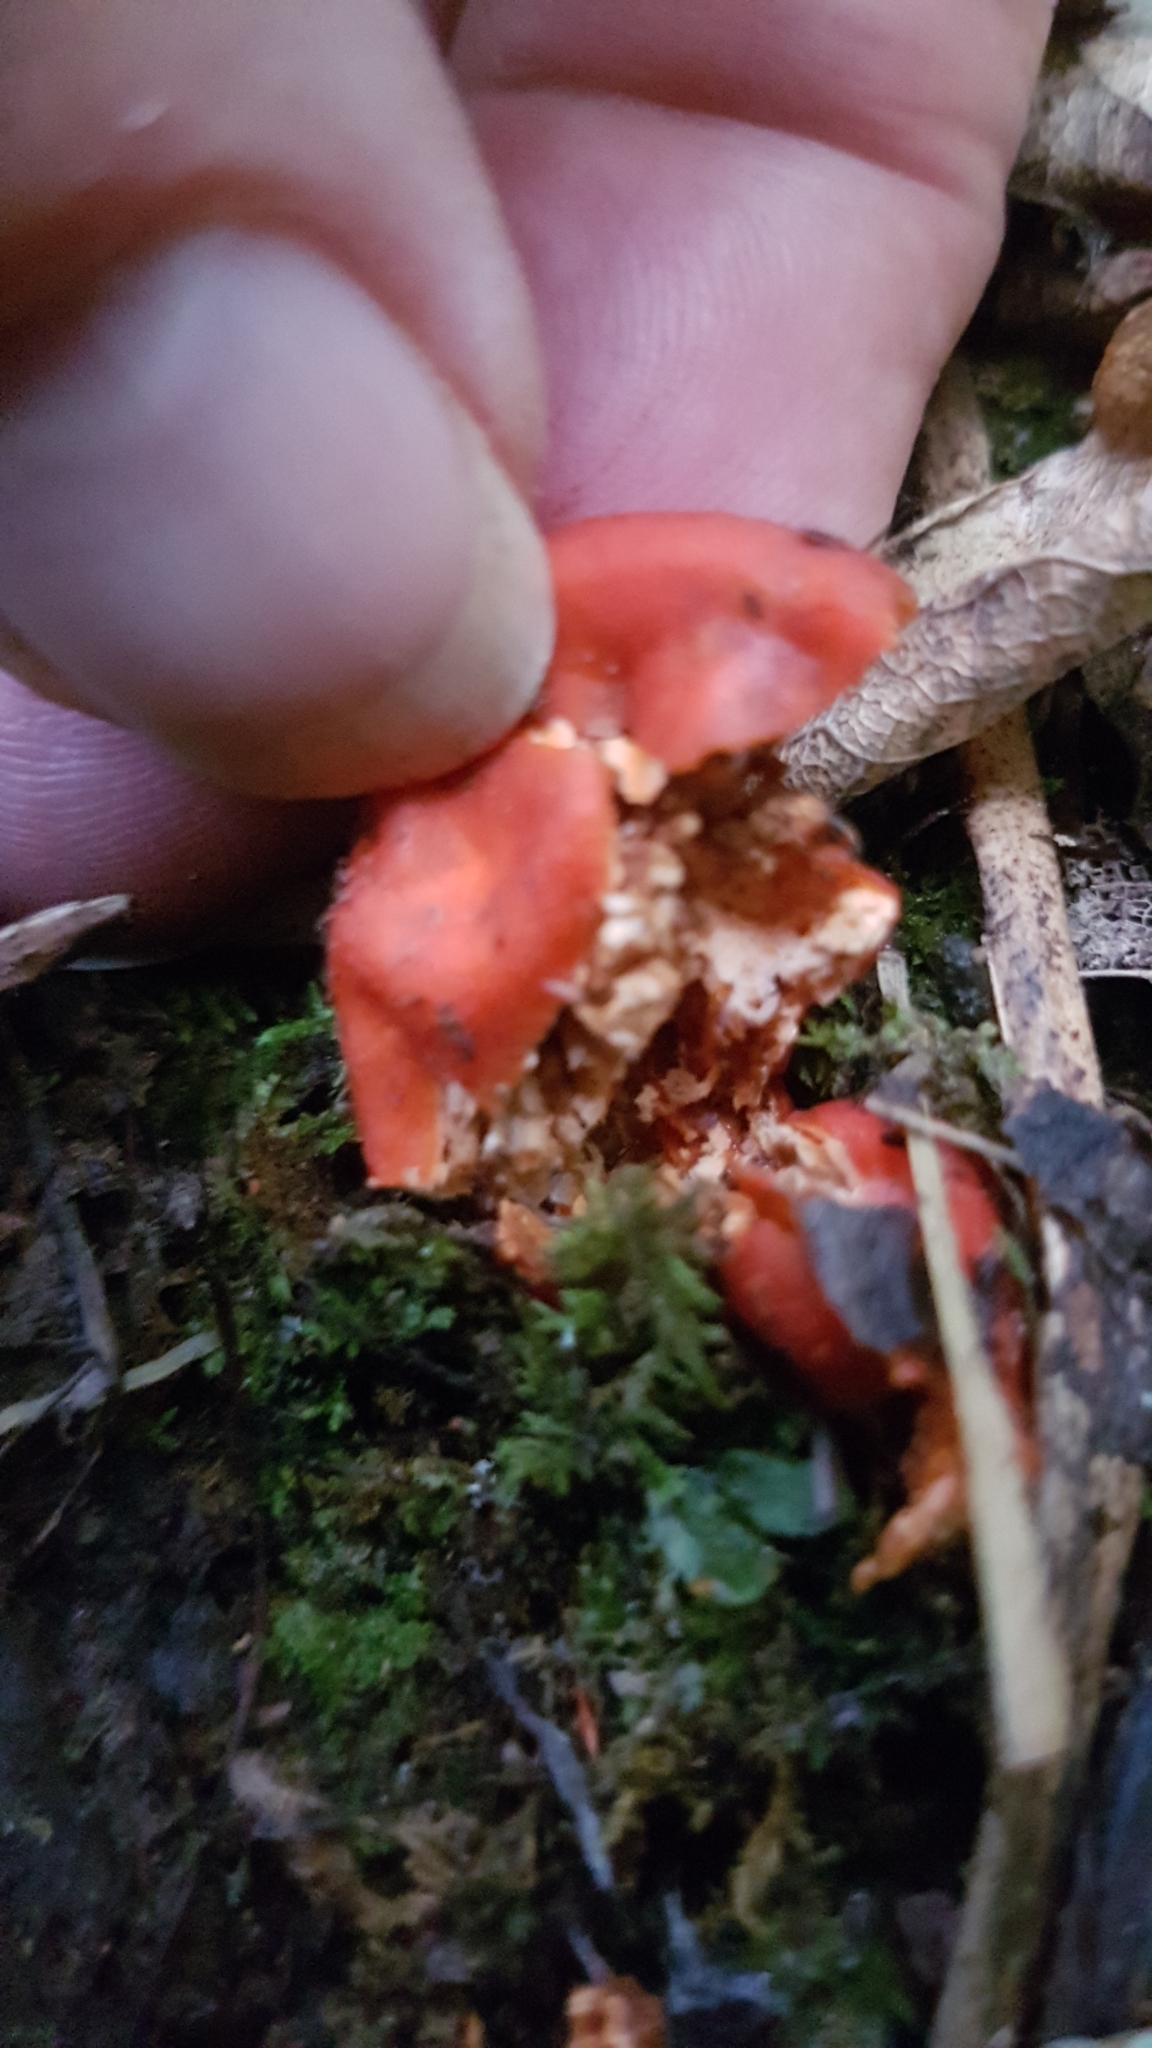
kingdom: Fungi
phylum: Ascomycota
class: Pezizomycetes
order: Pezizales
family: Pyronemataceae
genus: Paurocotylis
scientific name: Paurocotylis pila
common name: Scarlet berry truffle
